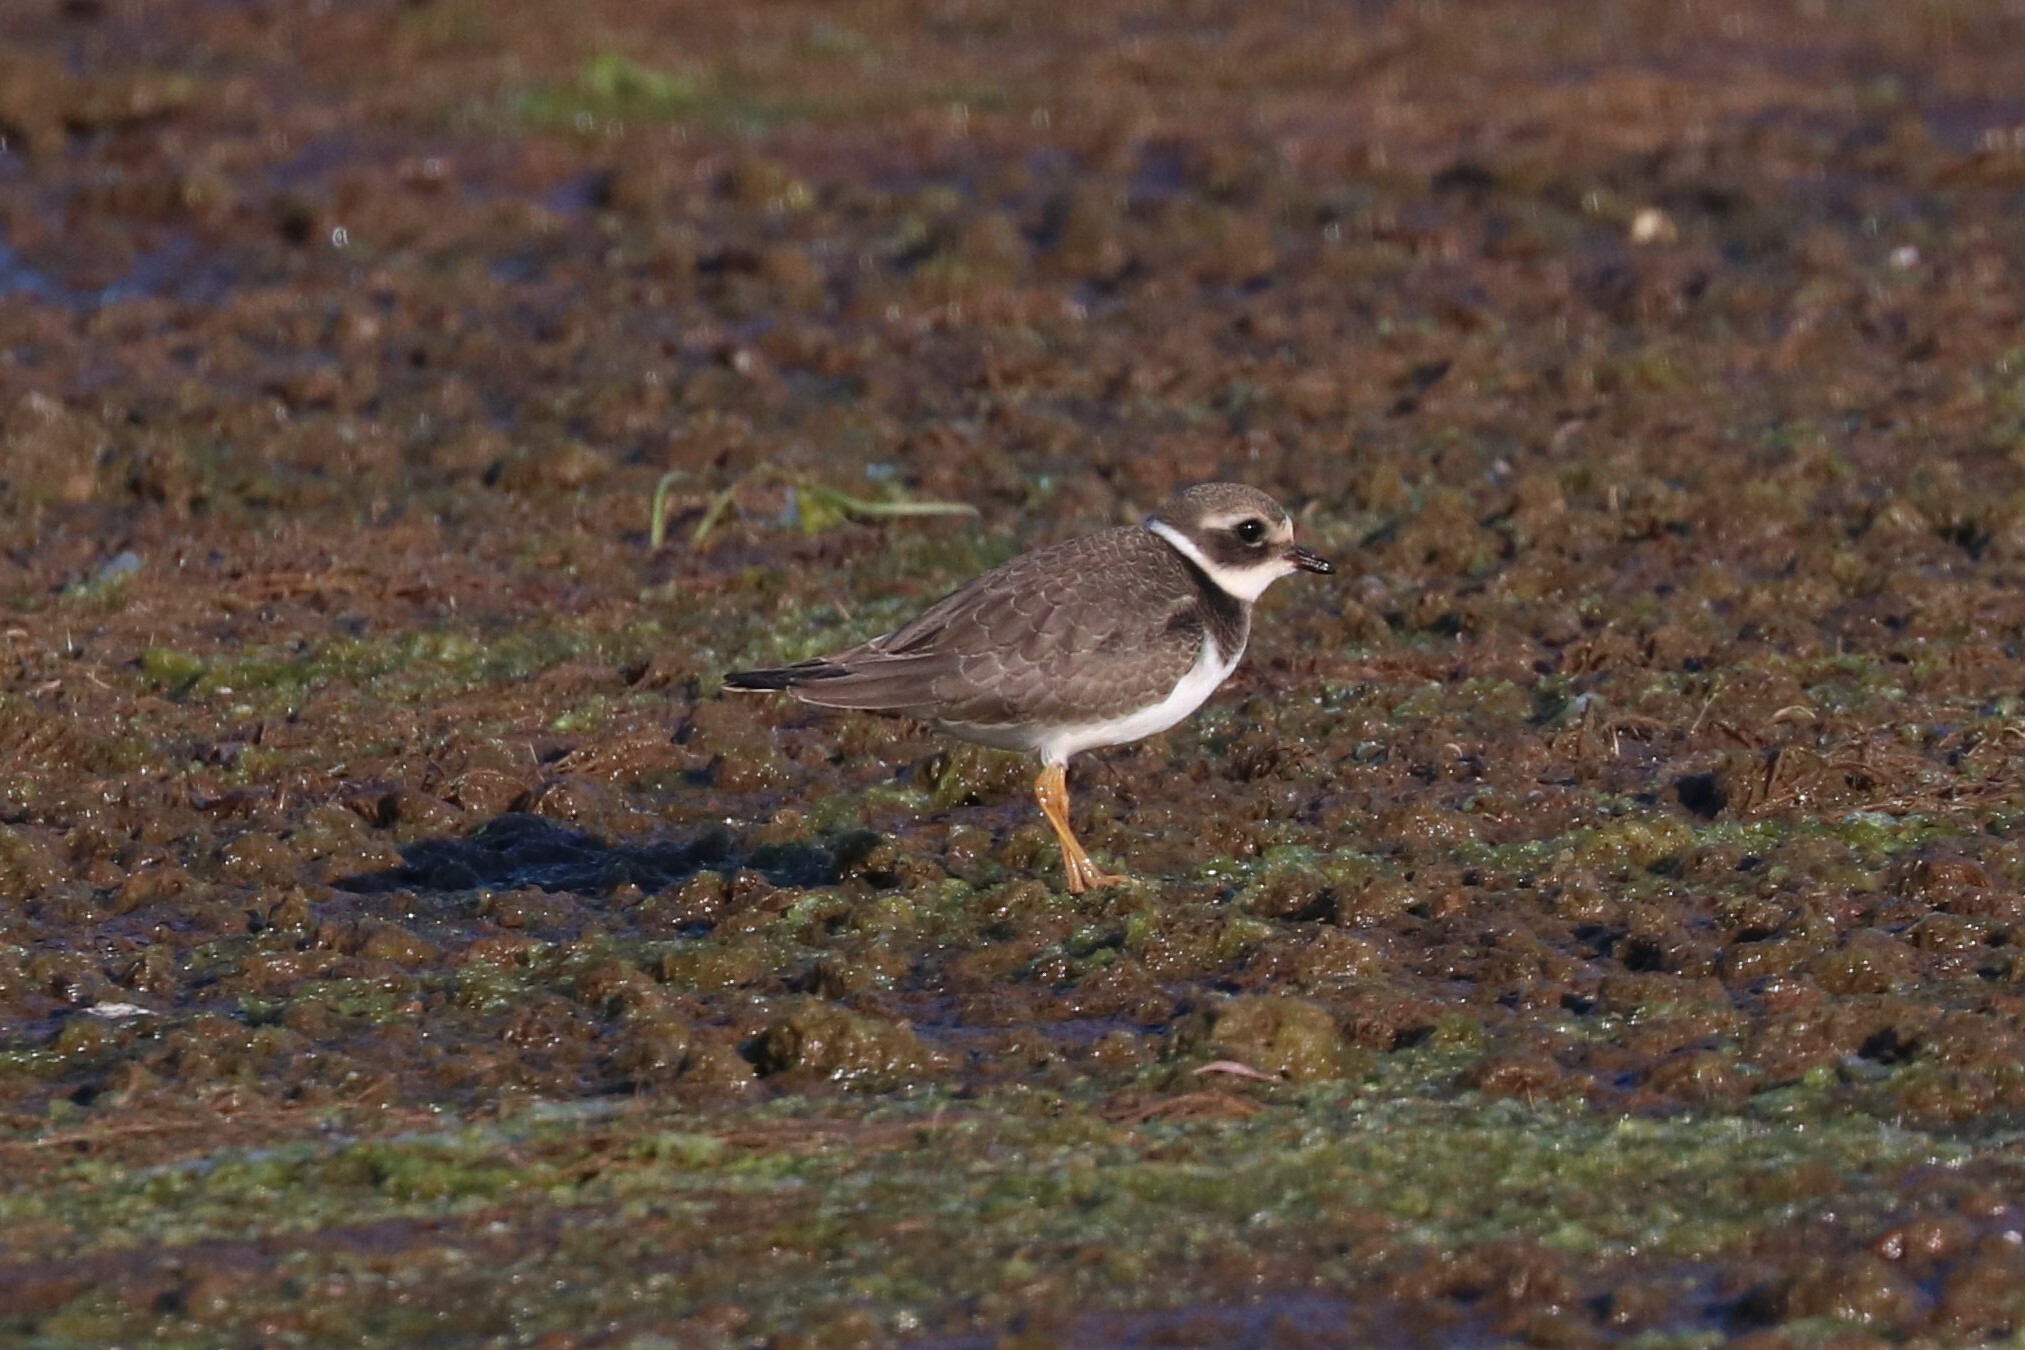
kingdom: Animalia
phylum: Chordata
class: Aves
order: Charadriiformes
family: Charadriidae
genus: Charadrius
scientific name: Charadrius hiaticula
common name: Common ringed plover
